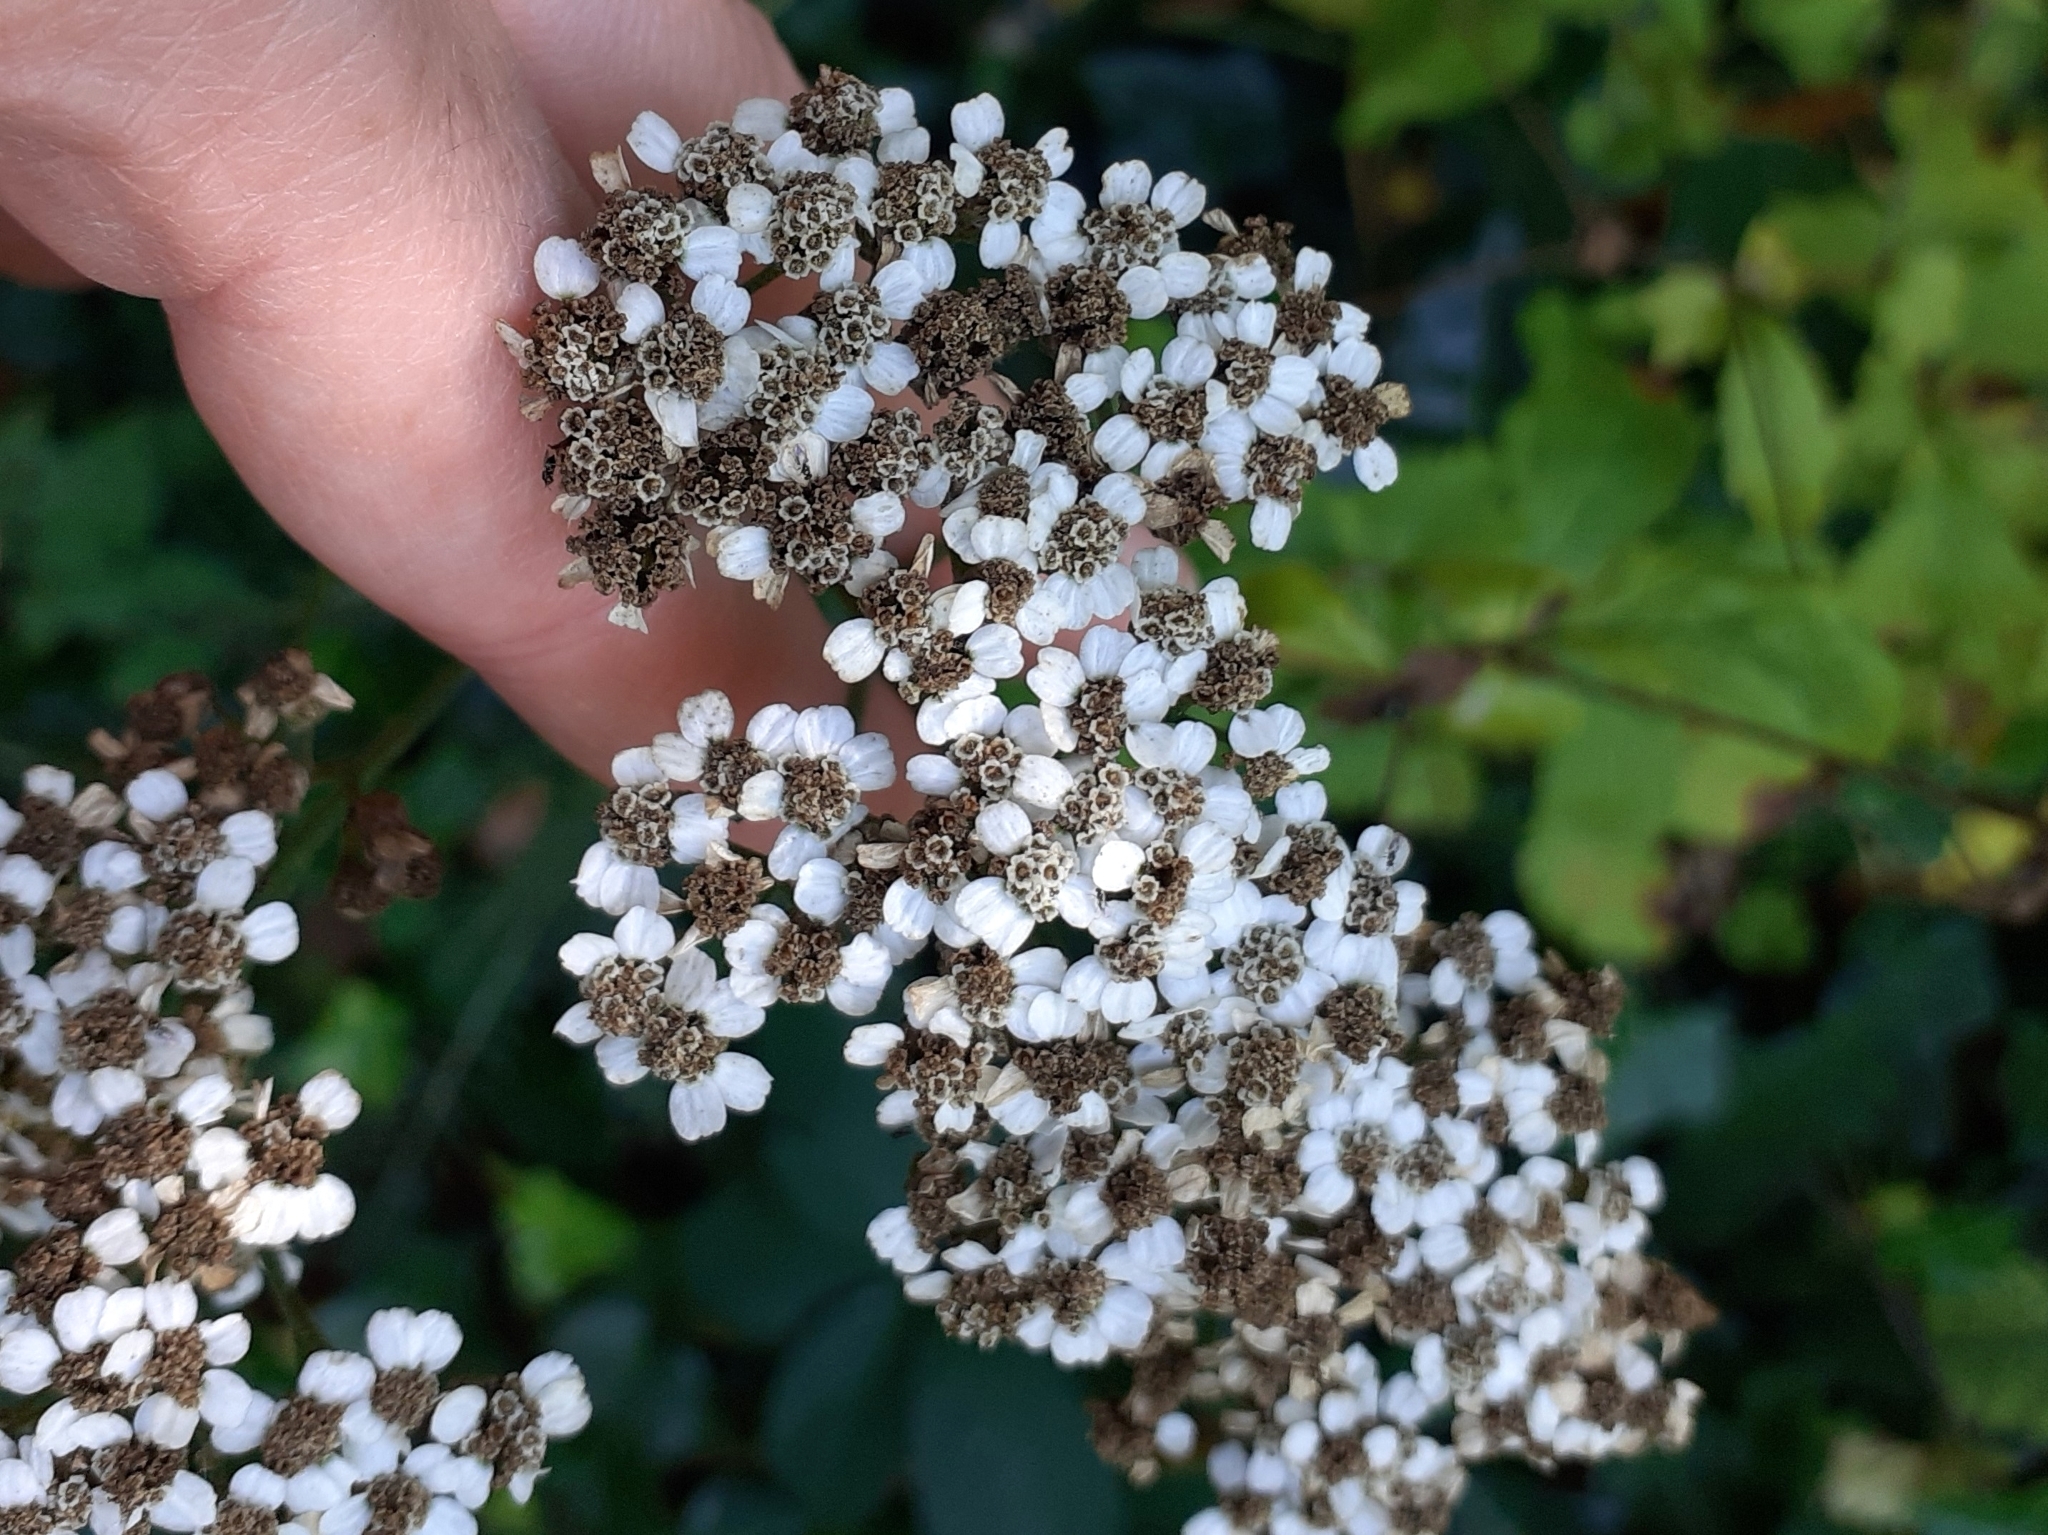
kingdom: Plantae
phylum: Tracheophyta
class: Magnoliopsida
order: Asterales
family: Asteraceae
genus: Achillea
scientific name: Achillea millefolium
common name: Yarrow
